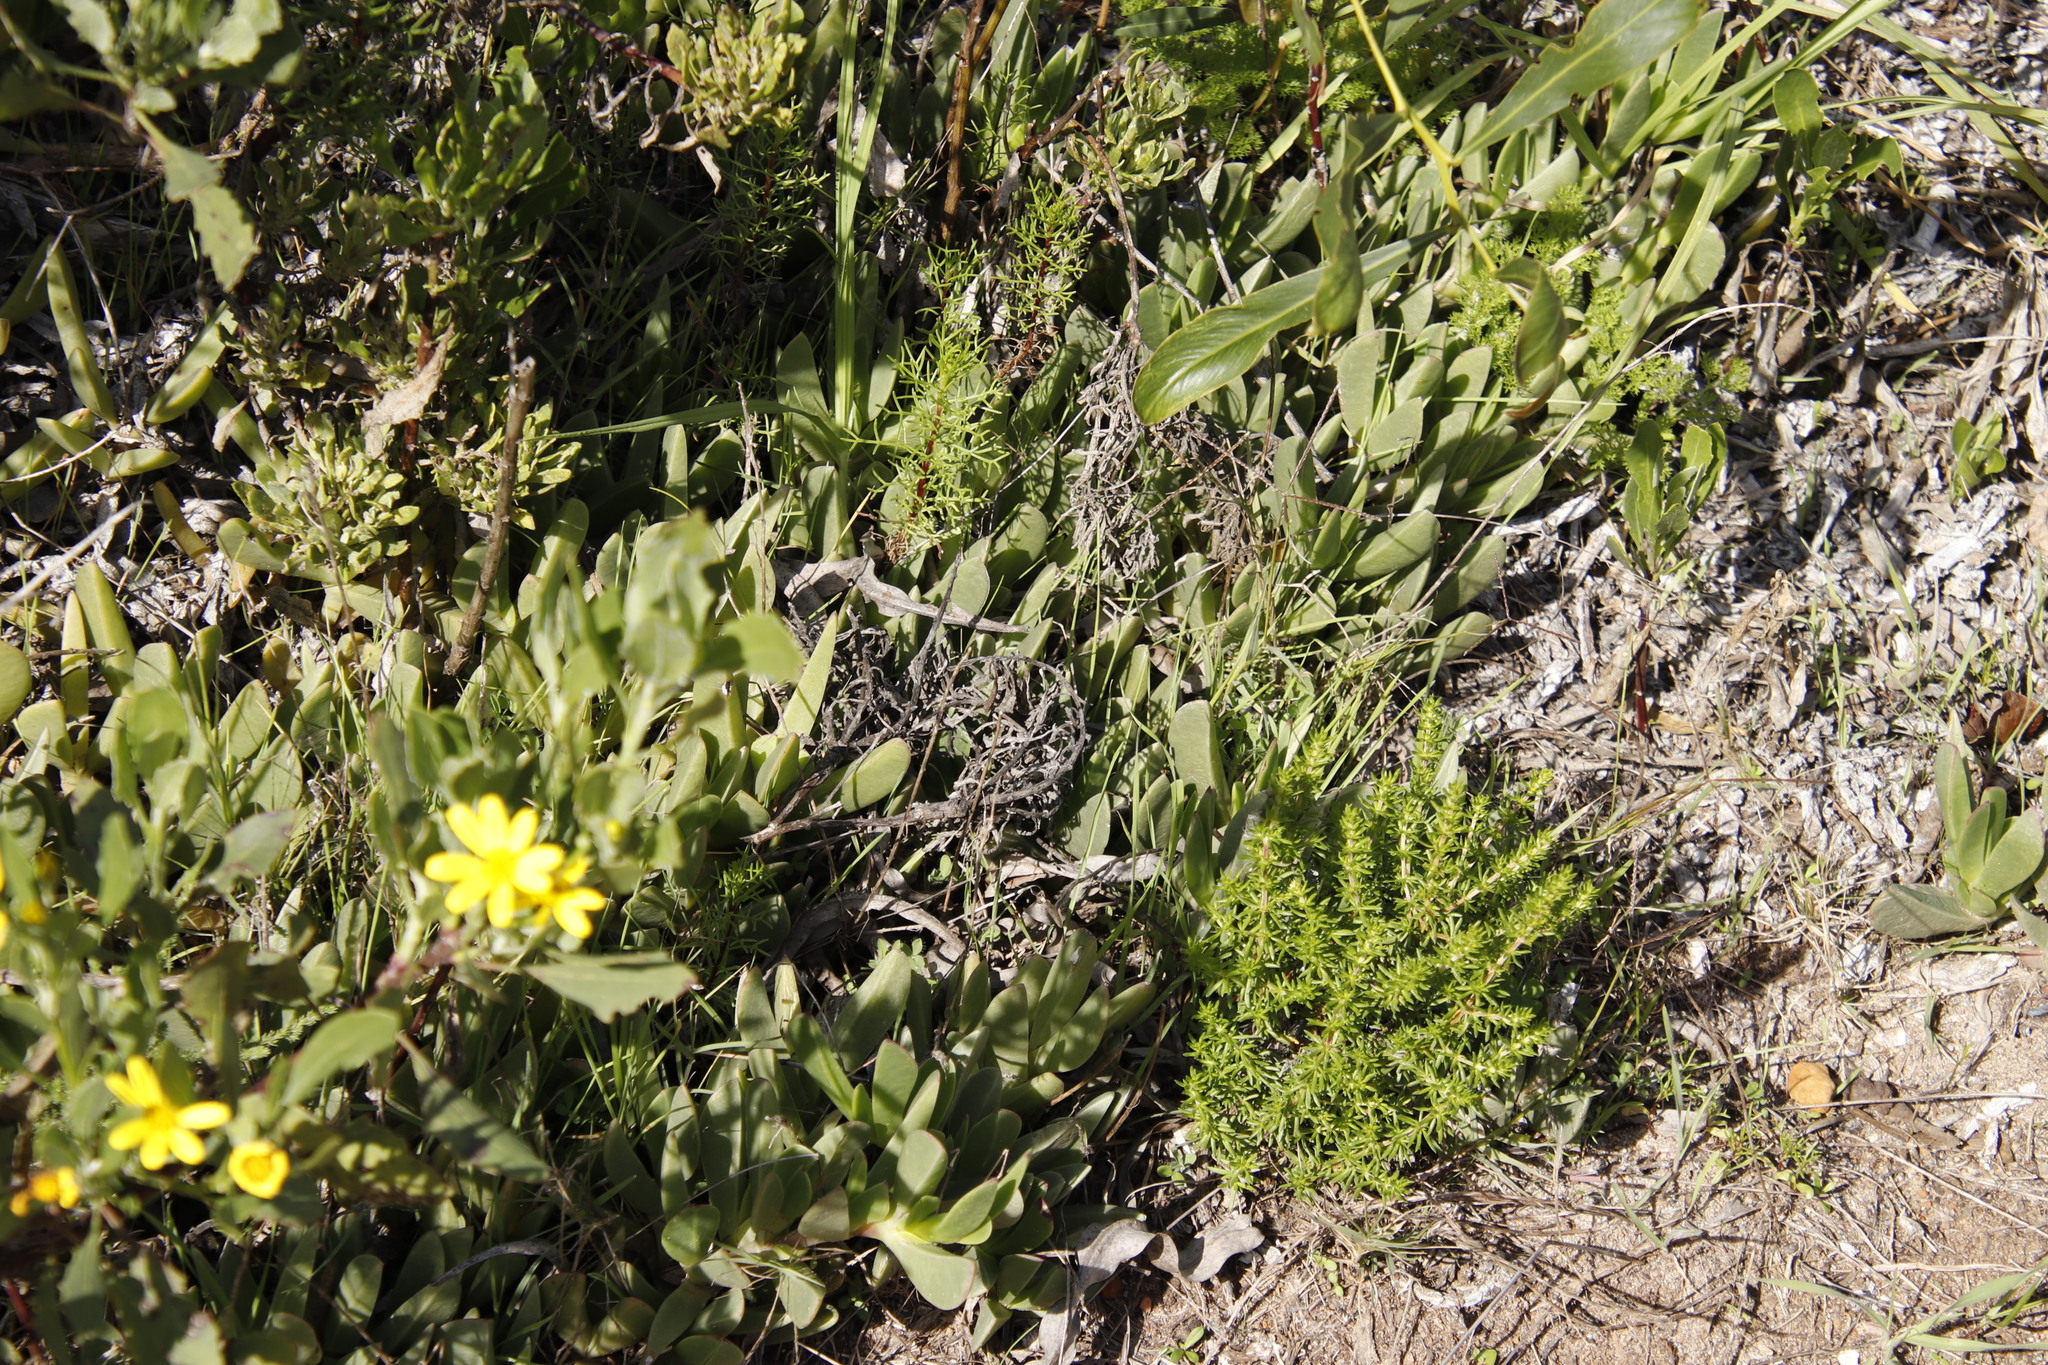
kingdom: Plantae
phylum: Tracheophyta
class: Magnoliopsida
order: Caryophyllales
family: Aizoaceae
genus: Carpobrotus
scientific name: Carpobrotus acinaciformis
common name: Sally-my-handsome
